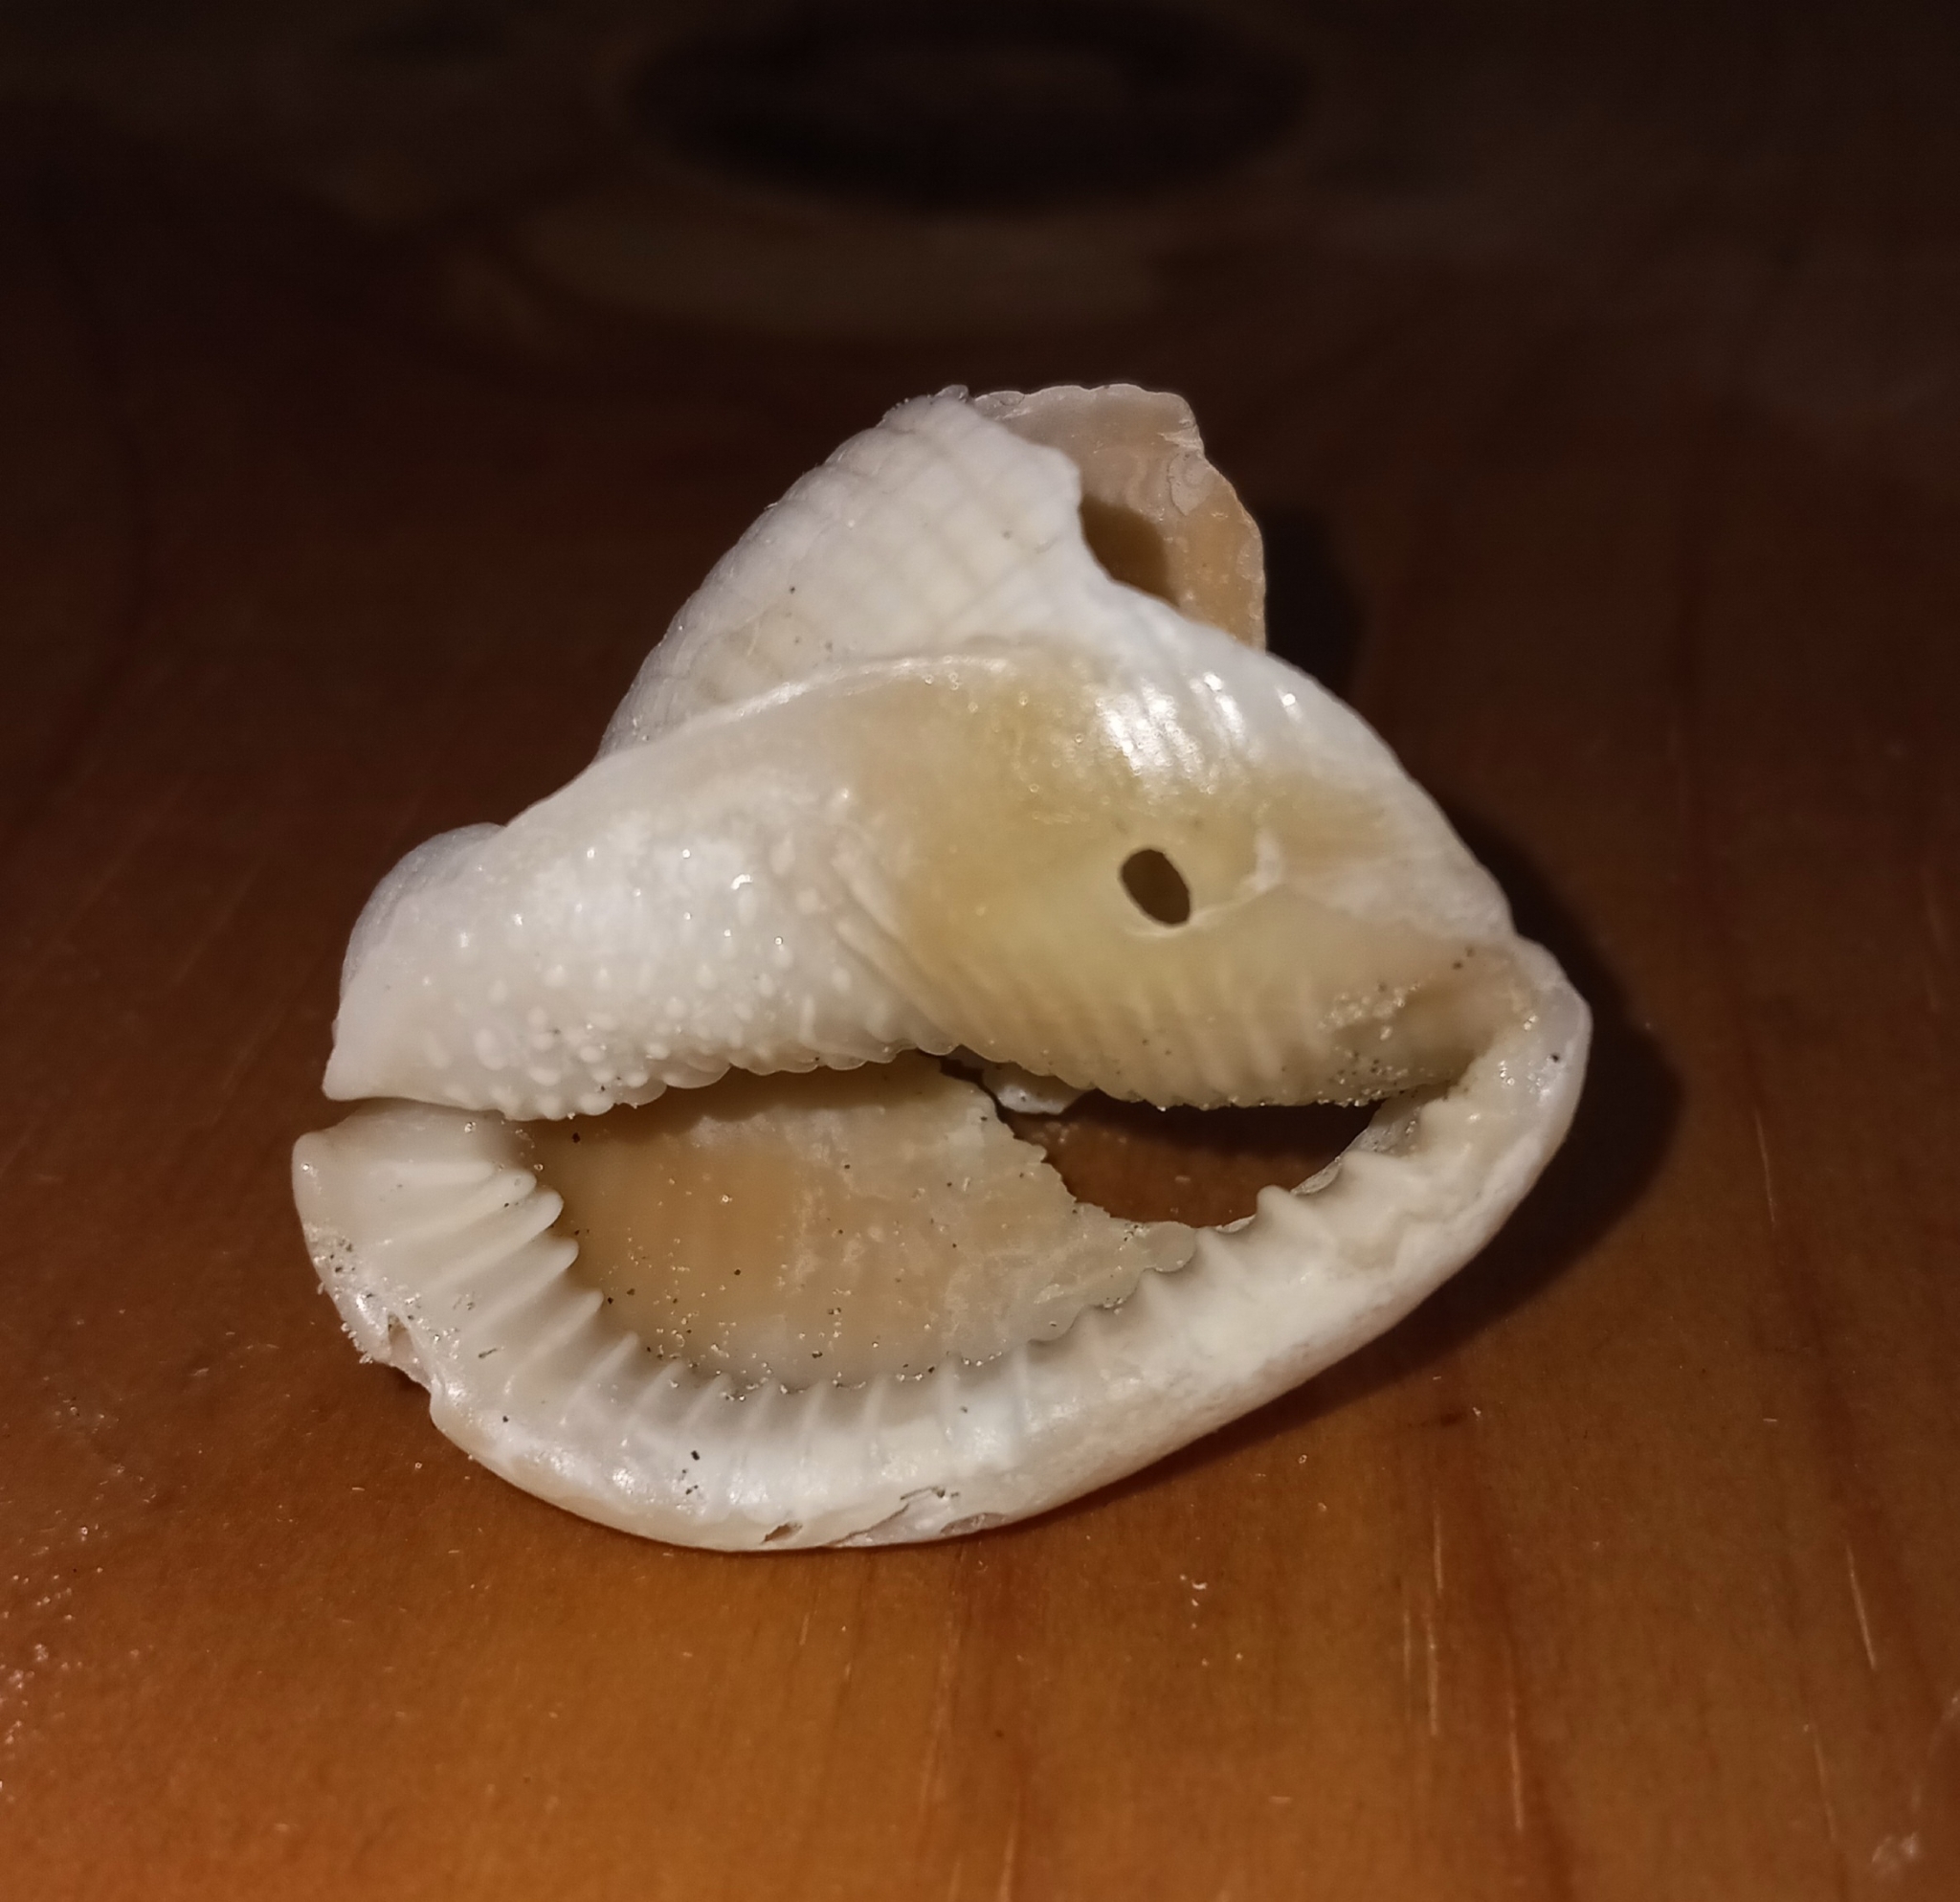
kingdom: Animalia
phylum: Mollusca
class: Gastropoda
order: Littorinimorpha
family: Cassidae
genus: Semicassis
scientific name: Semicassis granulata
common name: Scotch bonnet
